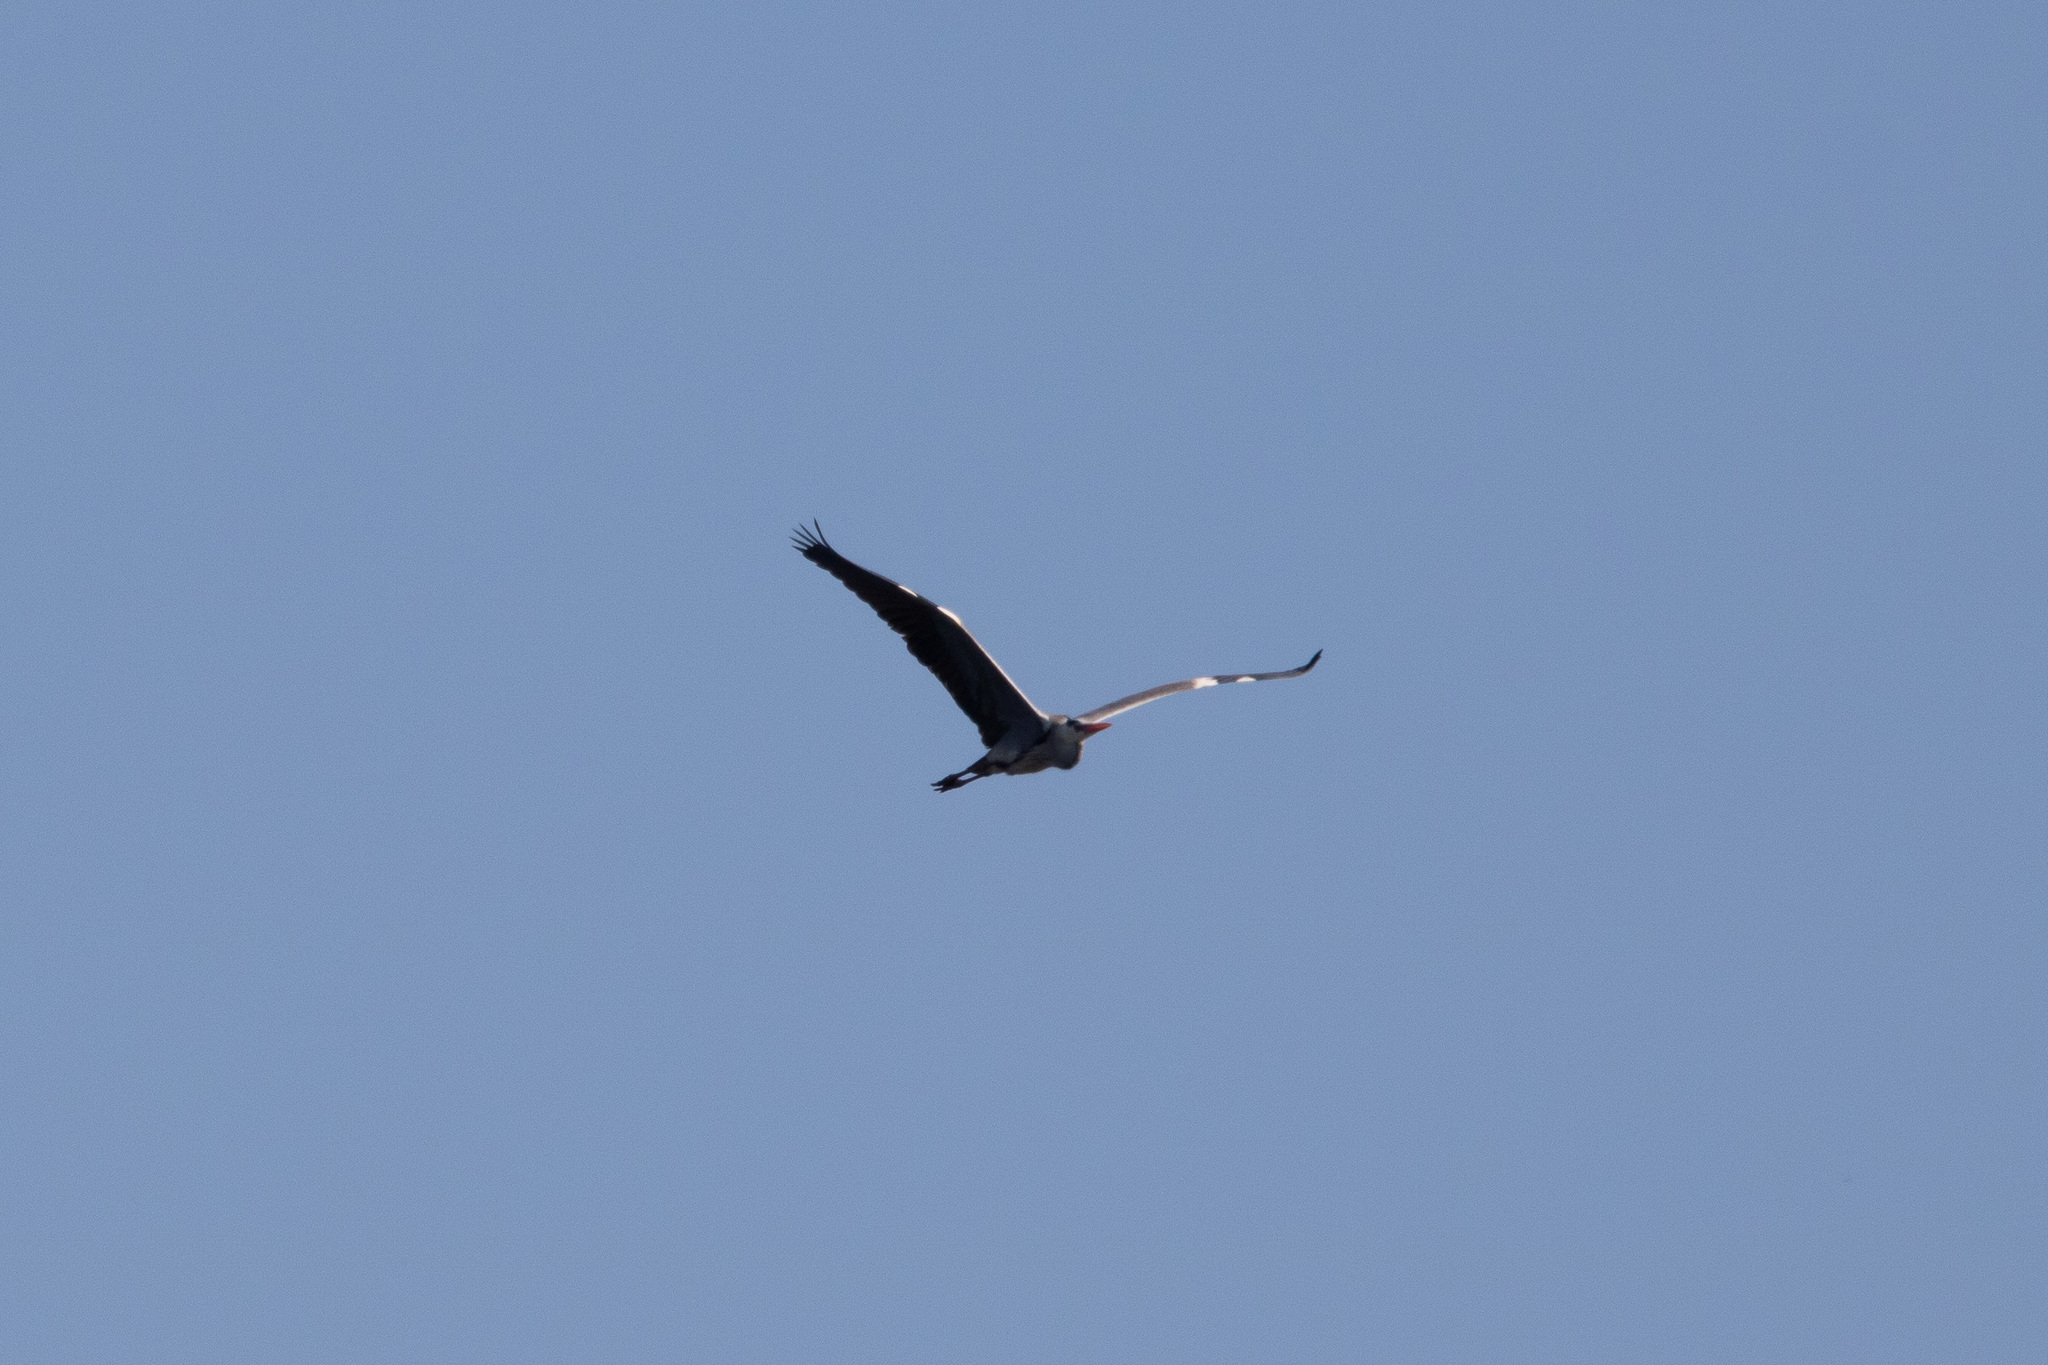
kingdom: Animalia
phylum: Chordata
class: Aves
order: Pelecaniformes
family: Ardeidae
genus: Ardea
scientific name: Ardea cinerea
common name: Grey heron
